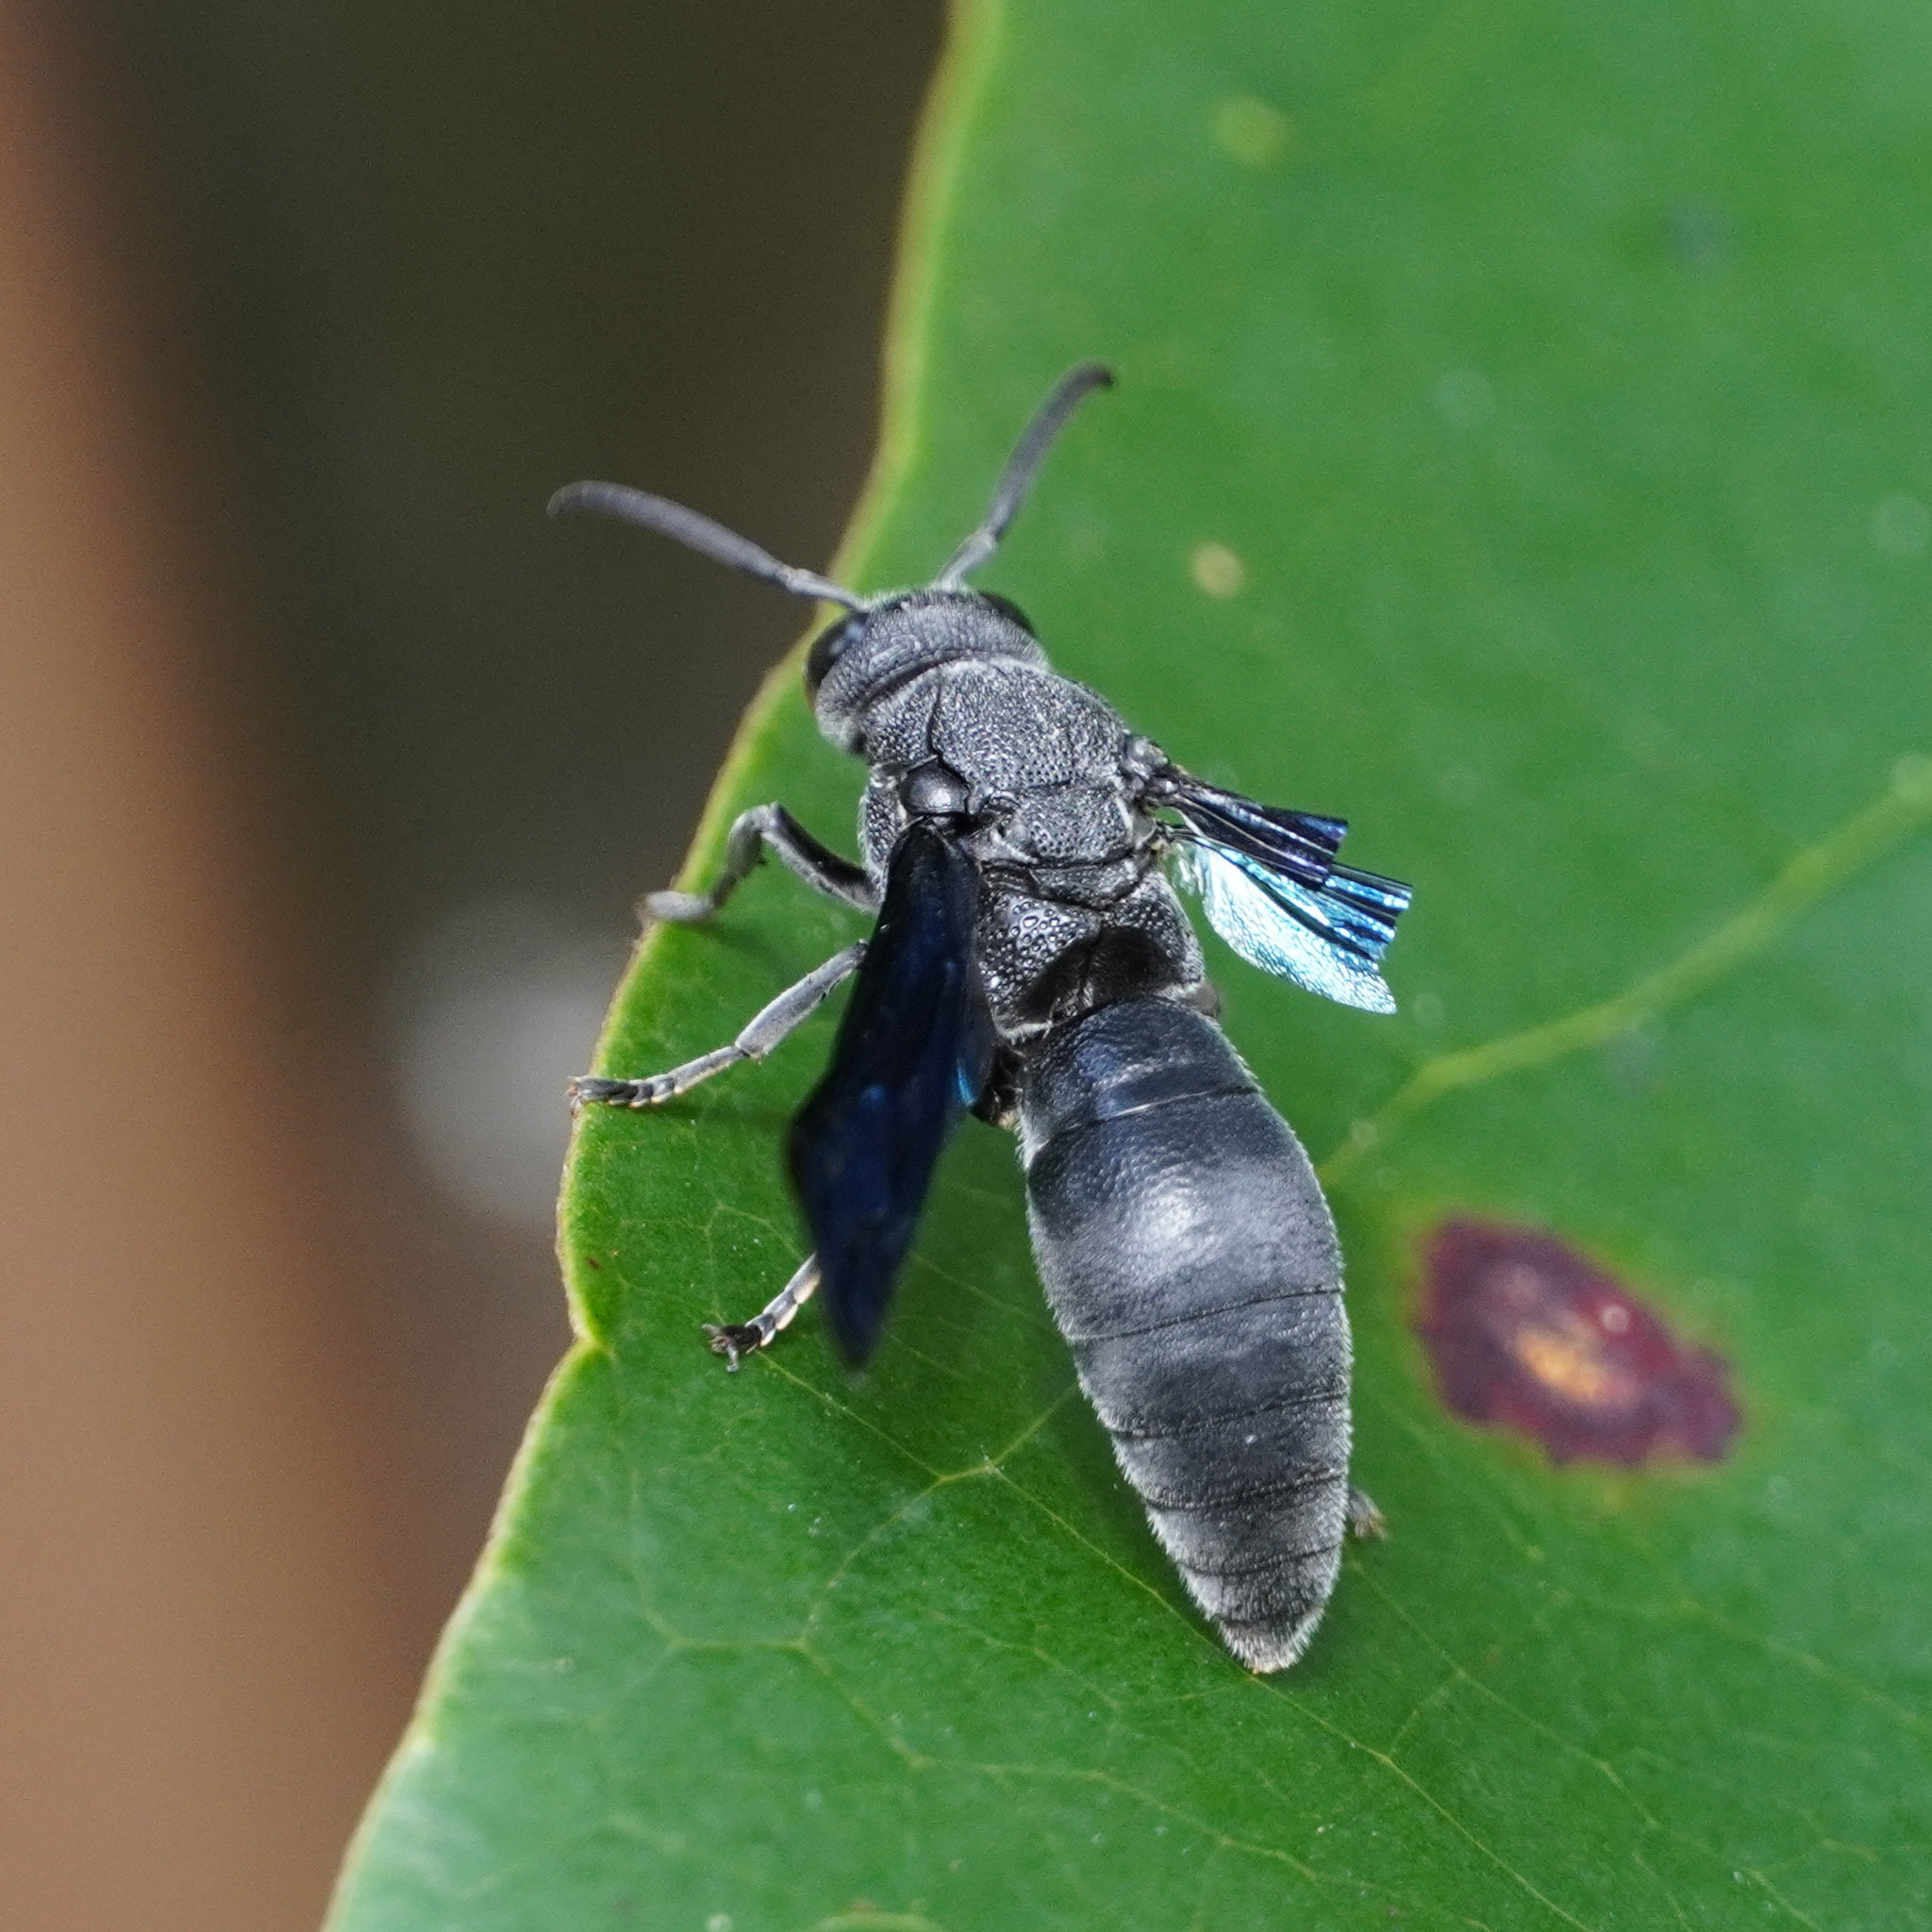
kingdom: Animalia
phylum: Arthropoda
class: Insecta
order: Hymenoptera
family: Eumenidae
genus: Allorhynchium
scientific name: Allorhynchium argentatum
